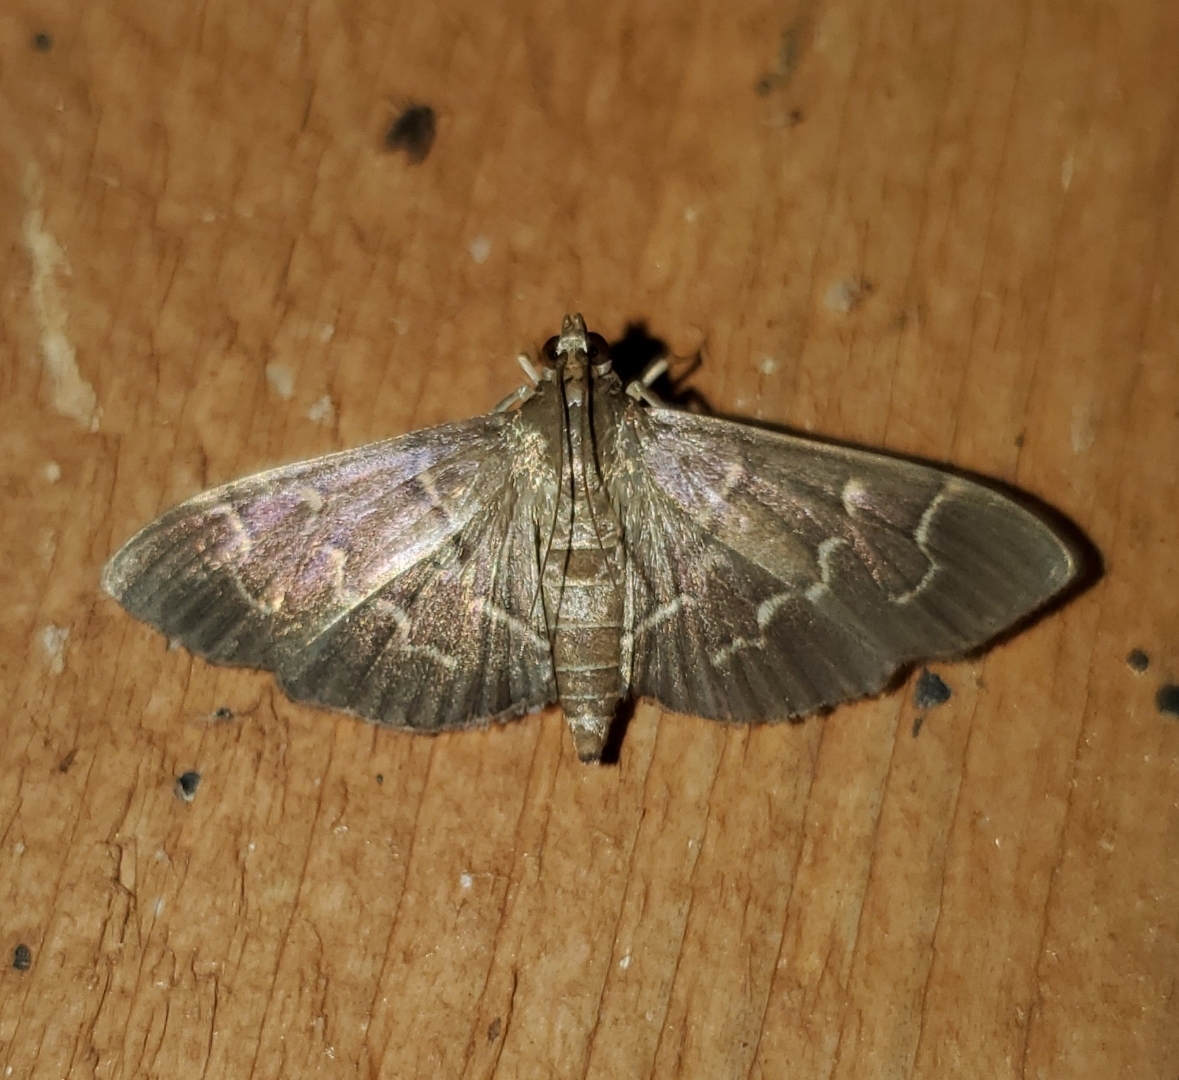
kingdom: Animalia
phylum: Arthropoda
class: Insecta
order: Lepidoptera
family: Crambidae
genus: Pilocrocis
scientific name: Pilocrocis ramentalis
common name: Scraped pilocrocis
